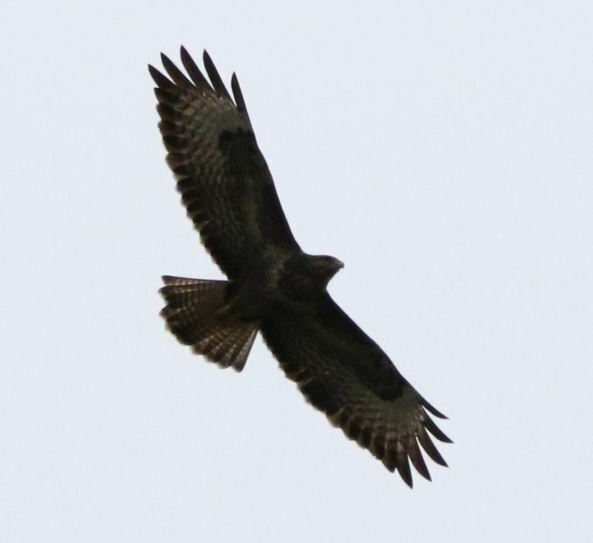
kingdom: Animalia
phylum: Chordata
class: Aves
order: Accipitriformes
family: Accipitridae
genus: Buteo
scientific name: Buteo buteo
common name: Common buzzard
